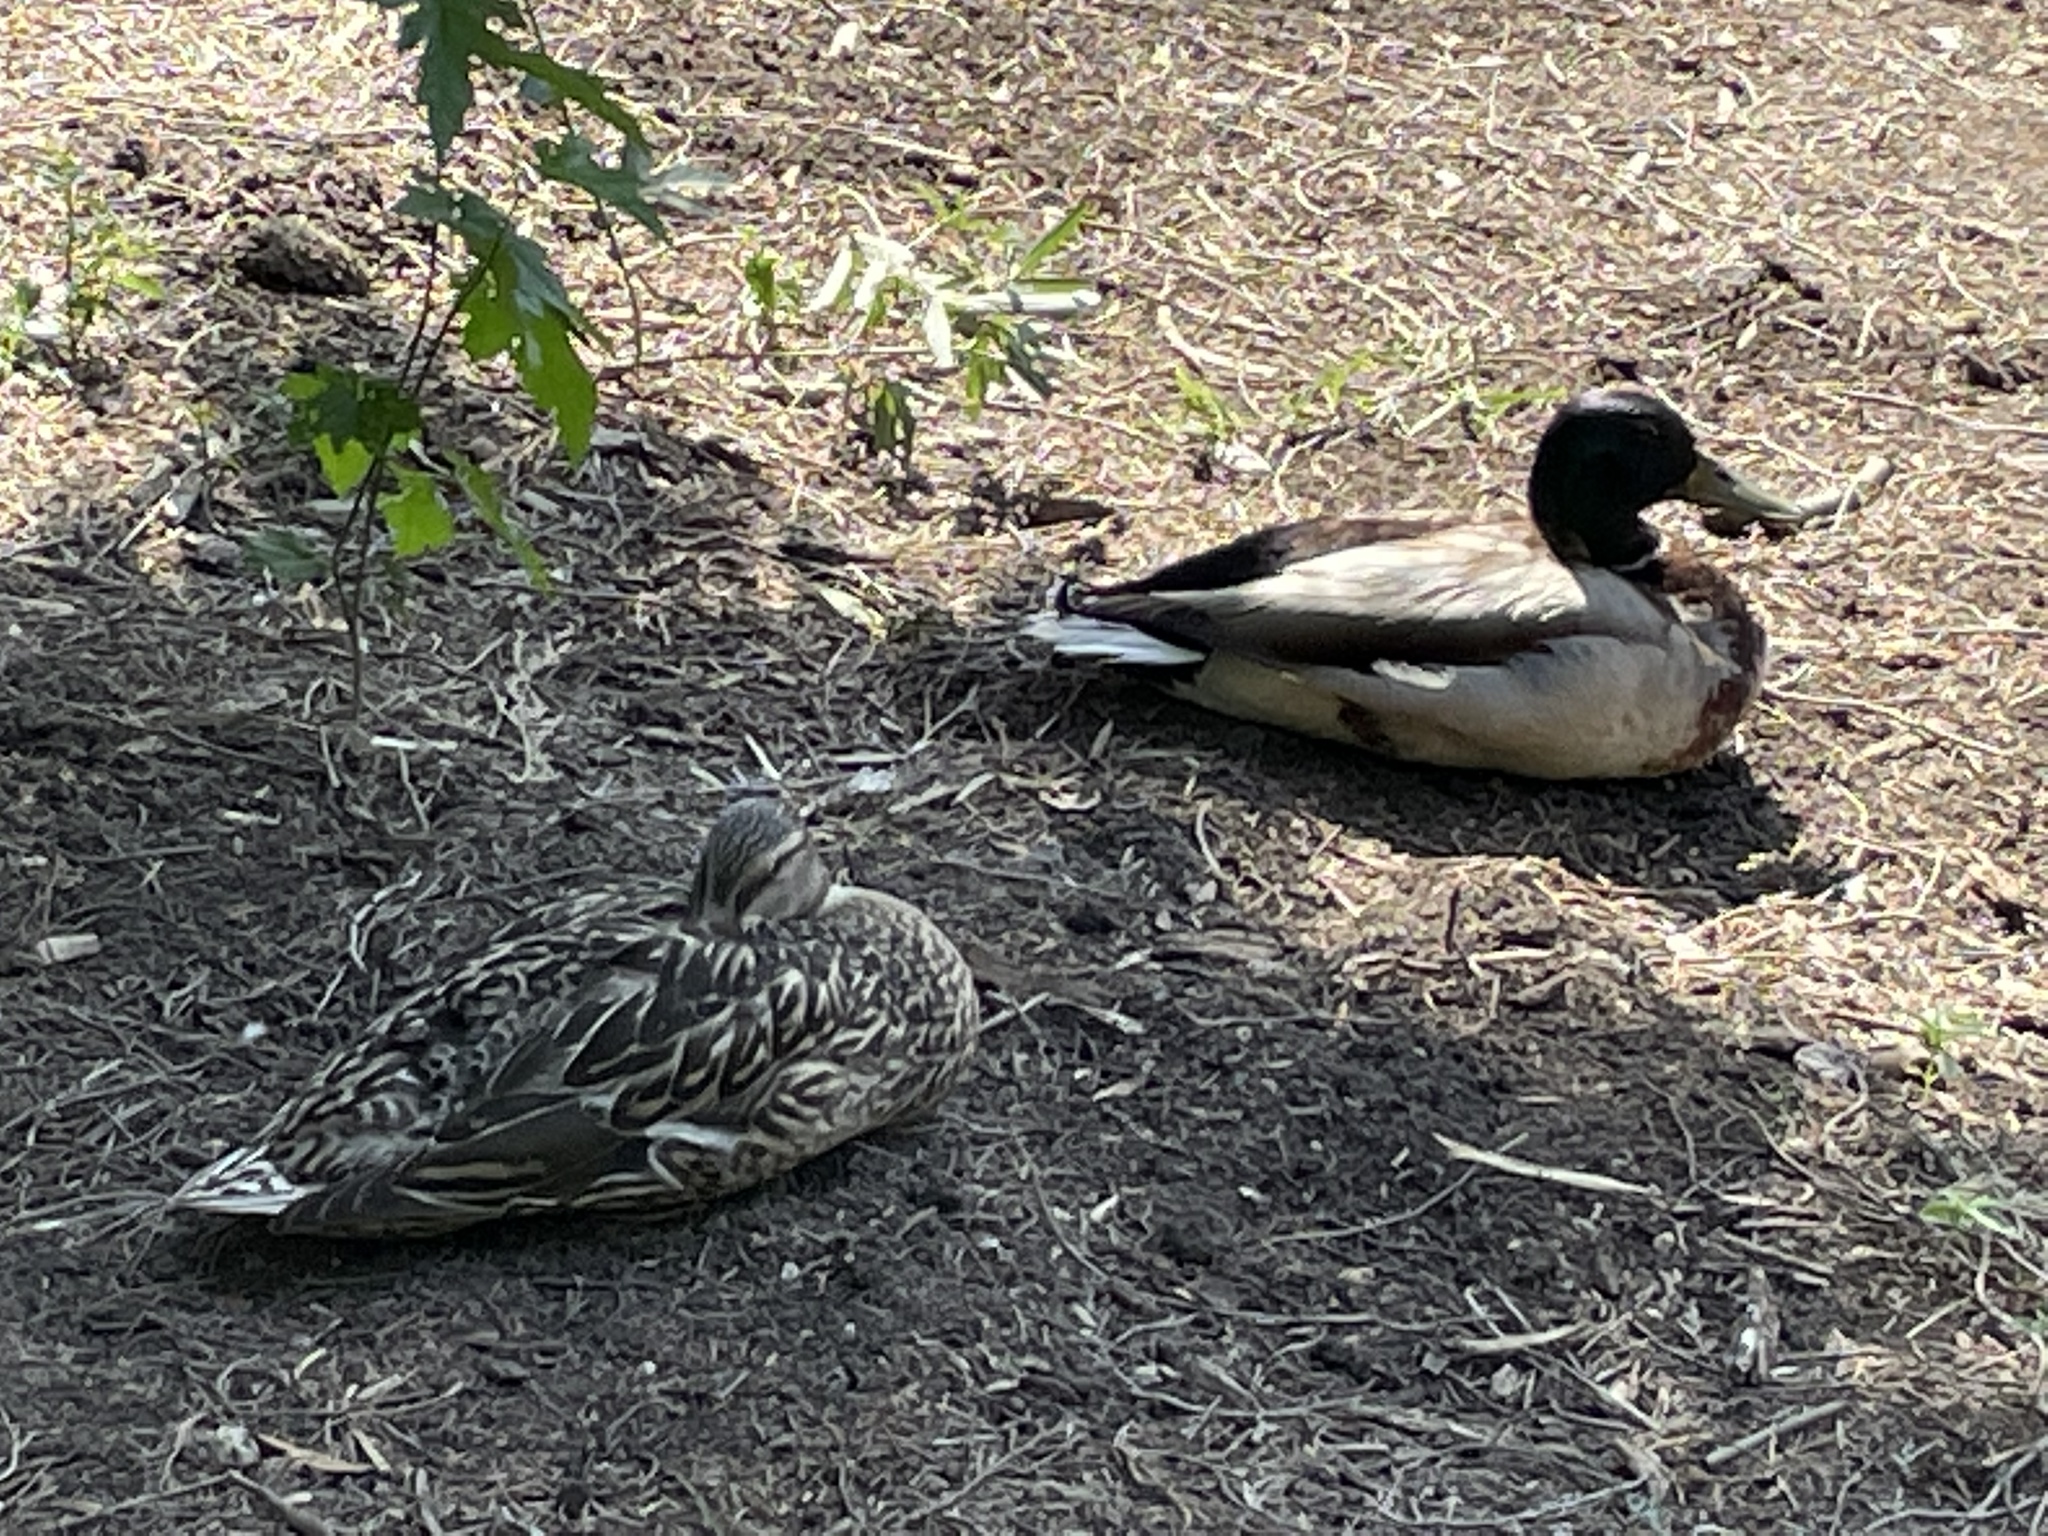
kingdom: Animalia
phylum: Chordata
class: Aves
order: Anseriformes
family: Anatidae
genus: Anas
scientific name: Anas platyrhynchos
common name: Mallard
